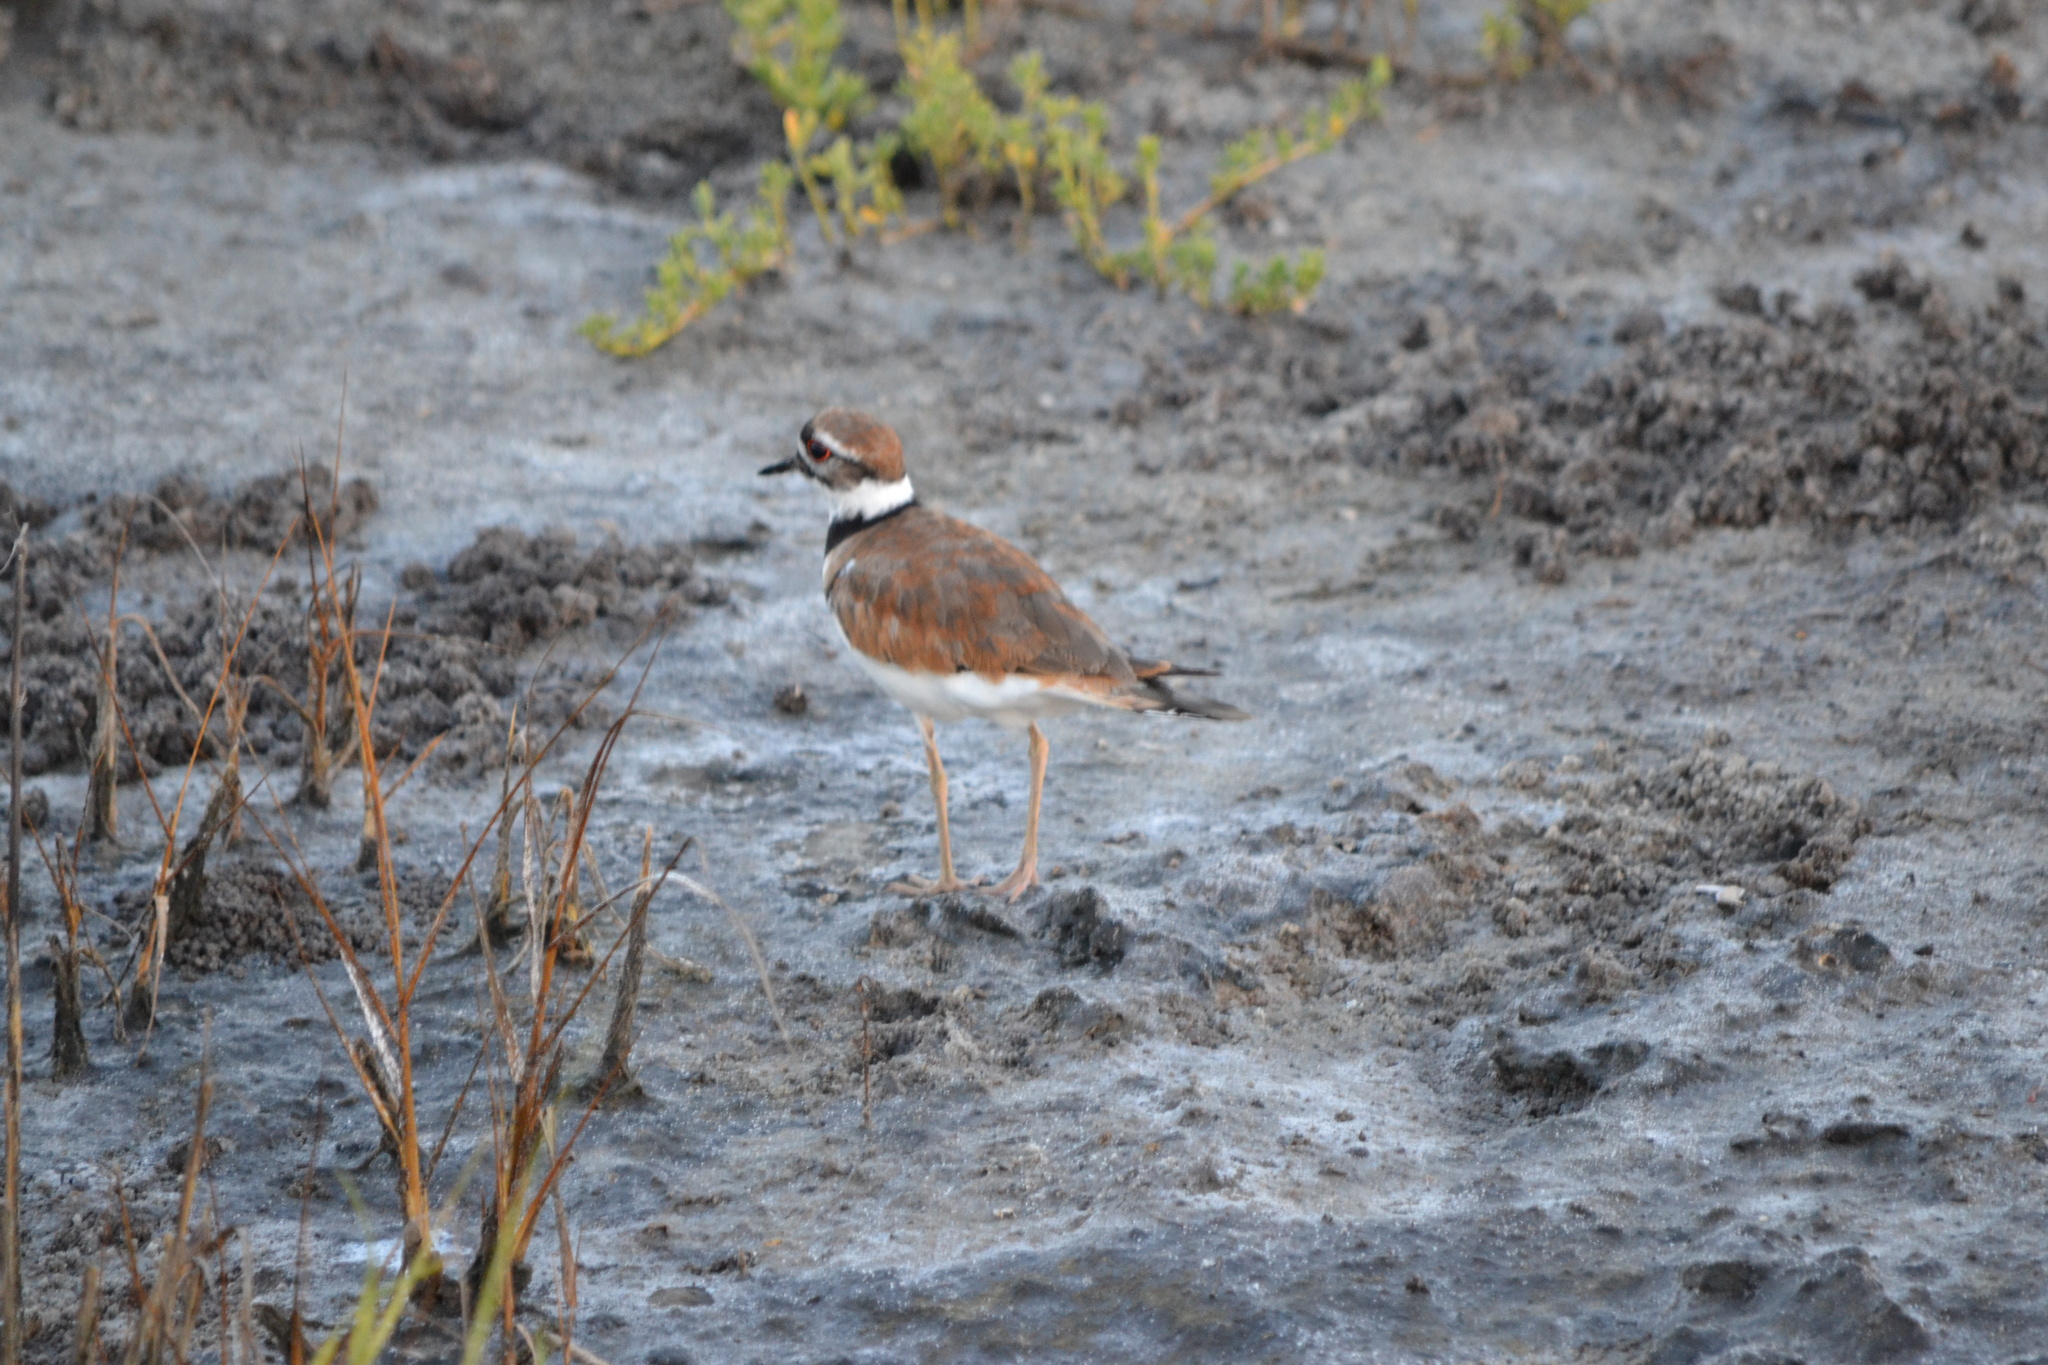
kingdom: Animalia
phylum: Chordata
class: Aves
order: Charadriiformes
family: Charadriidae
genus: Charadrius
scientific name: Charadrius vociferus
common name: Killdeer
